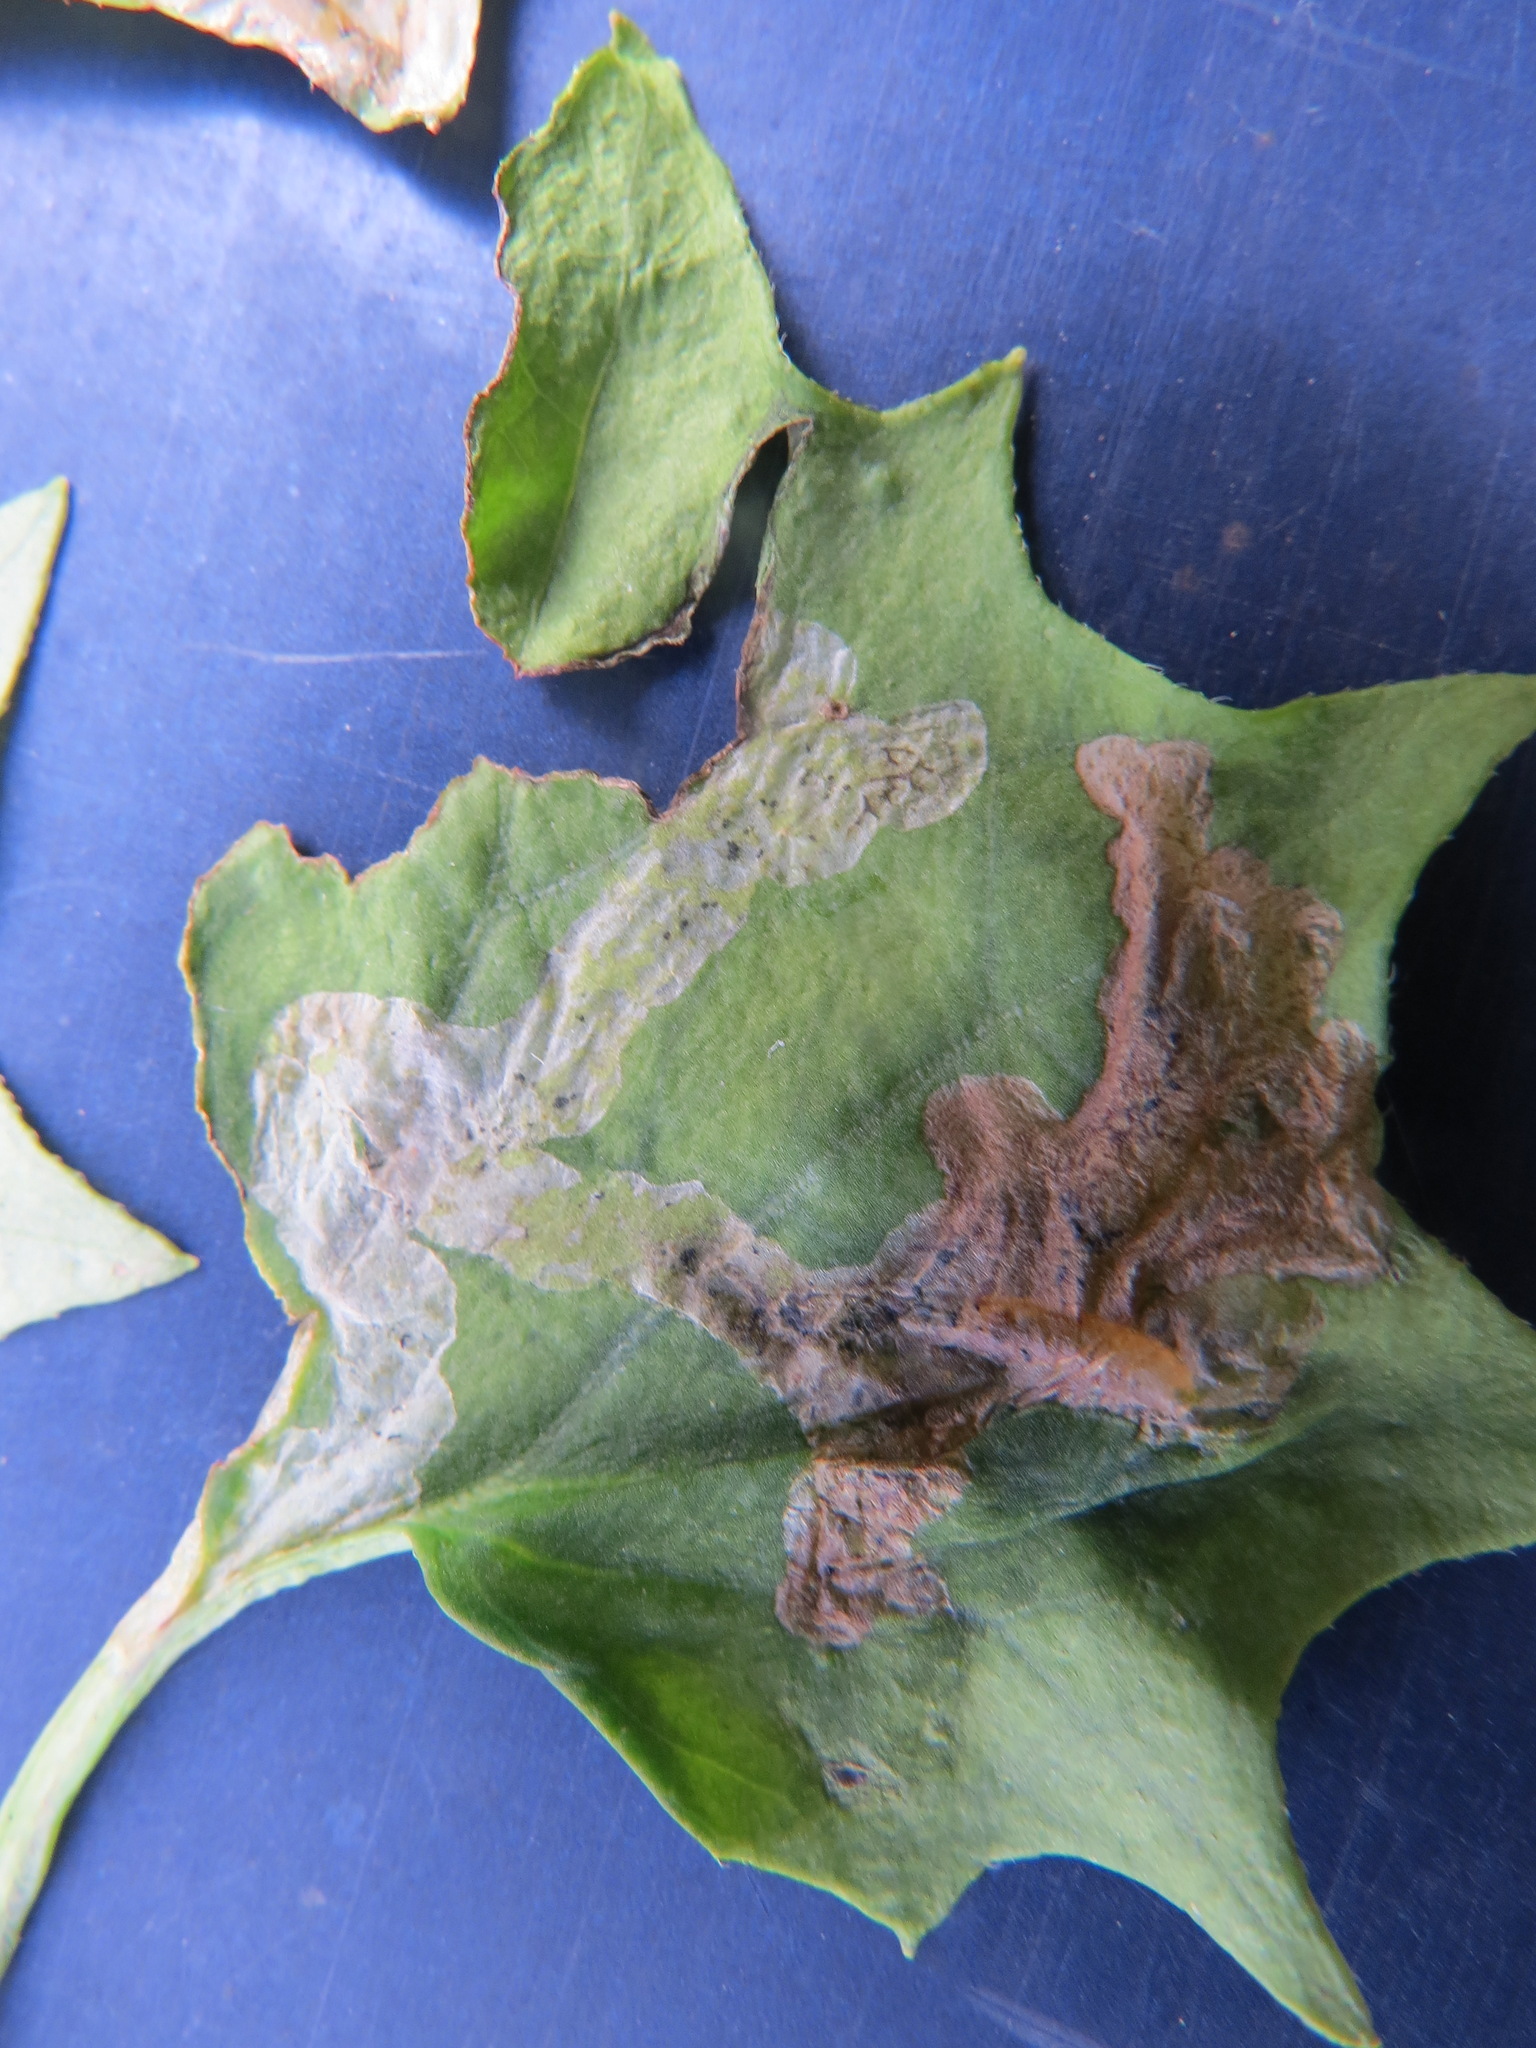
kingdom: Animalia
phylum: Arthropoda
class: Insecta
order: Diptera
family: Tephritidae
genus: Trypeta
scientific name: Trypeta flaveola
